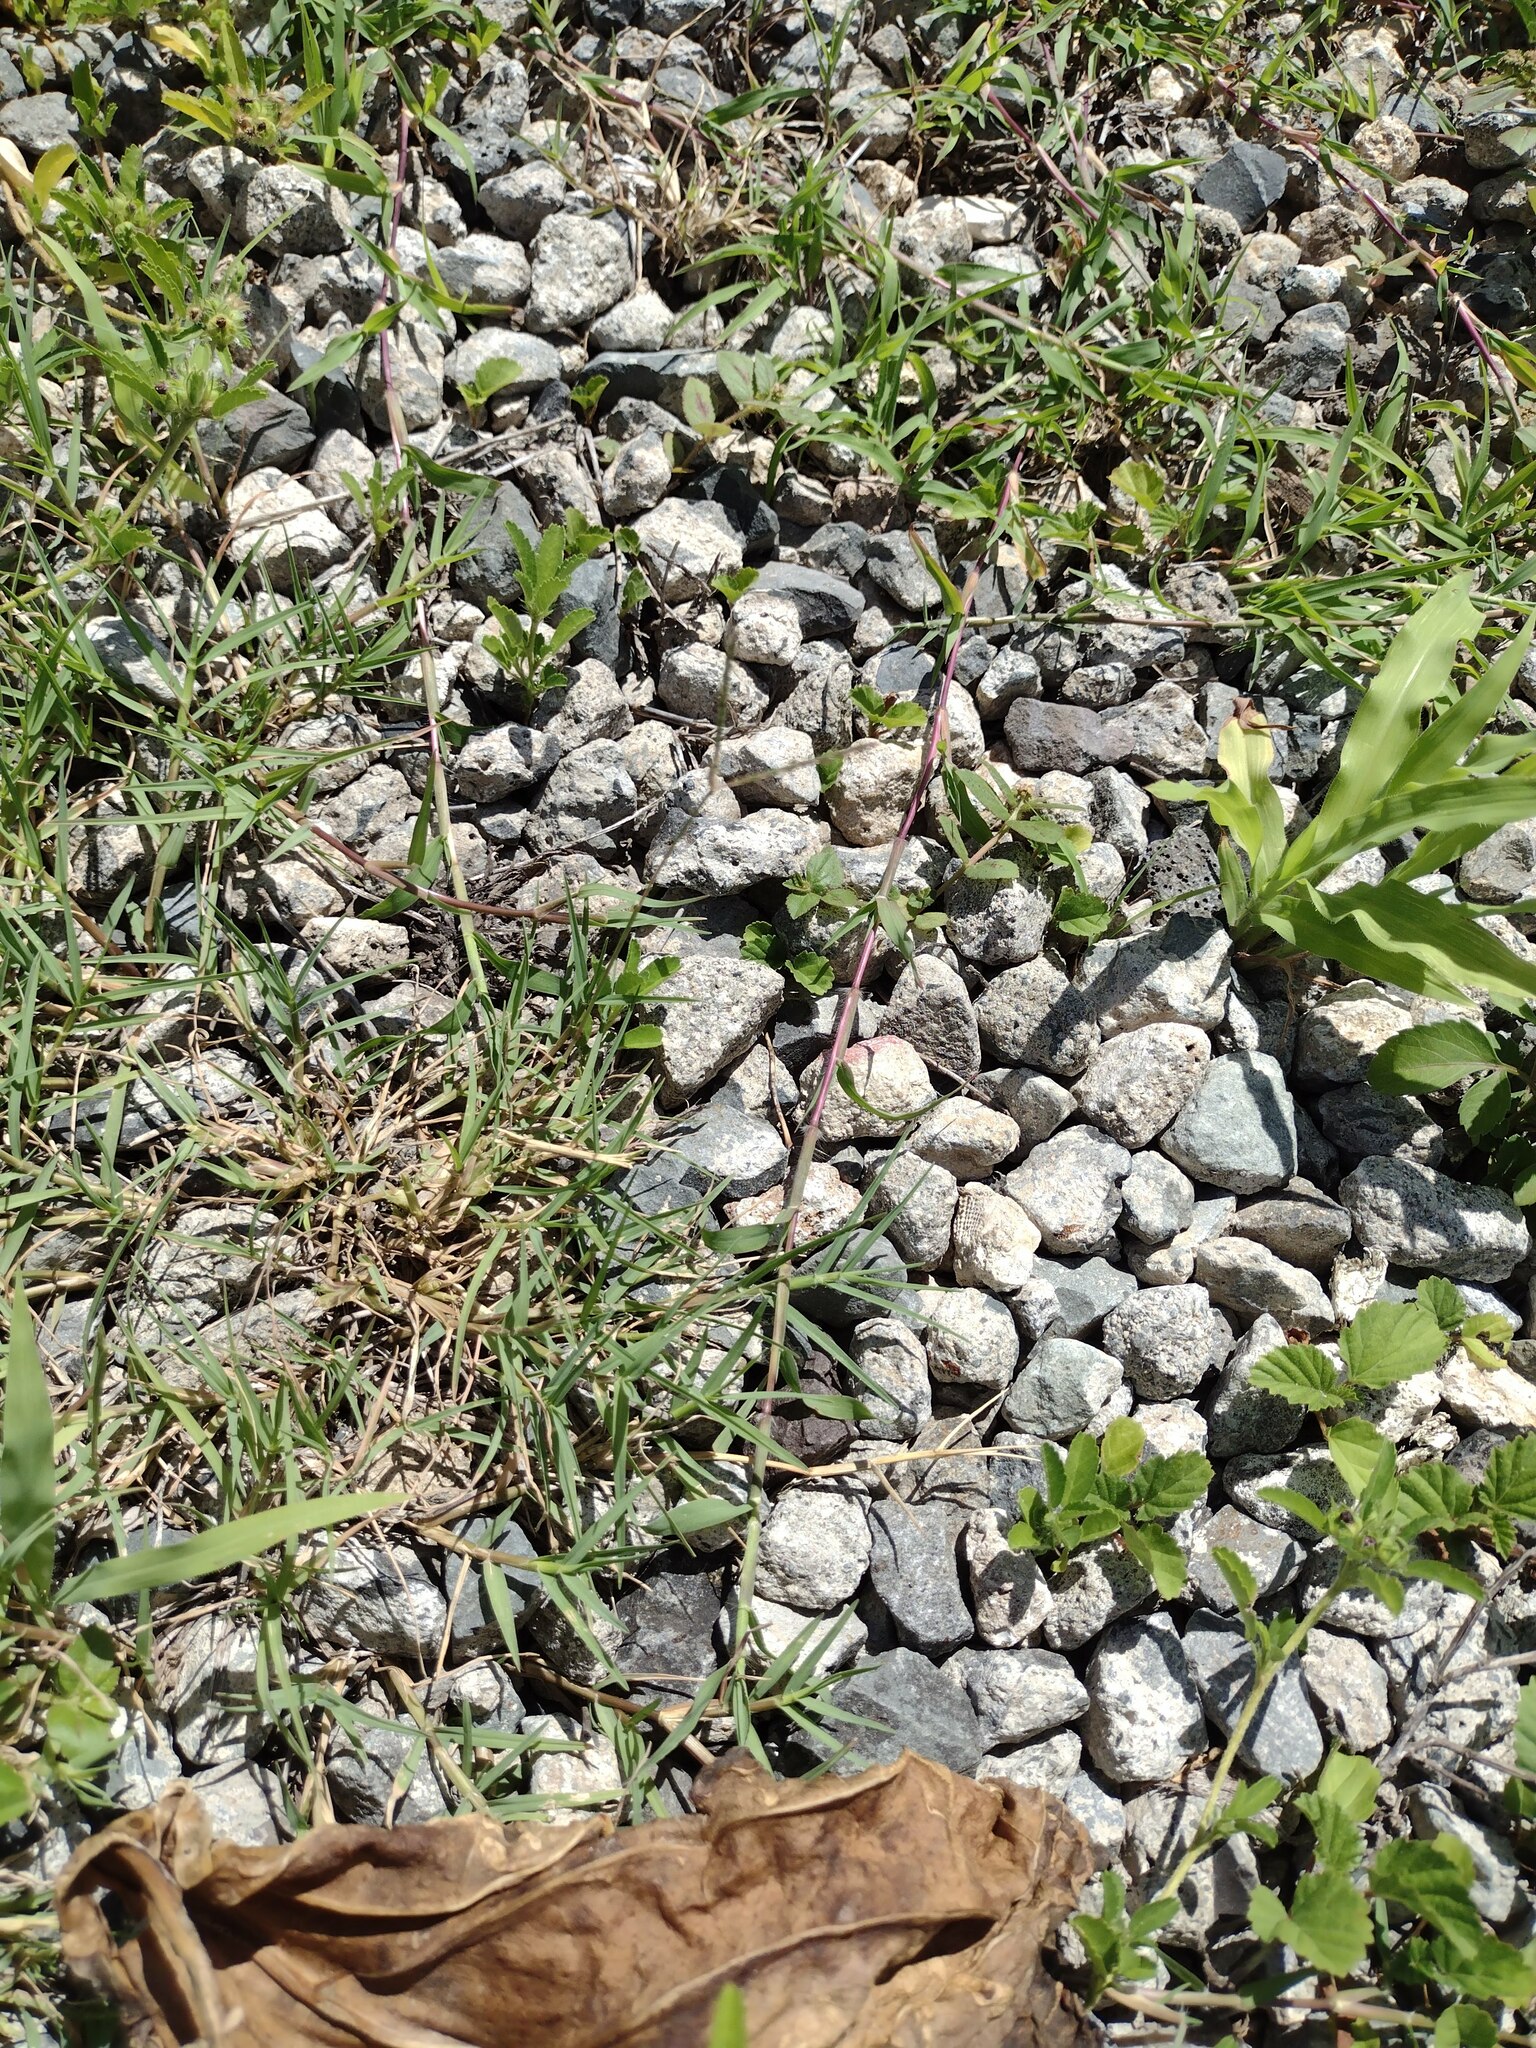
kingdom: Plantae
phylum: Tracheophyta
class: Liliopsida
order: Poales
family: Poaceae
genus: Cynodon
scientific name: Cynodon dactylon
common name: Bermuda grass
